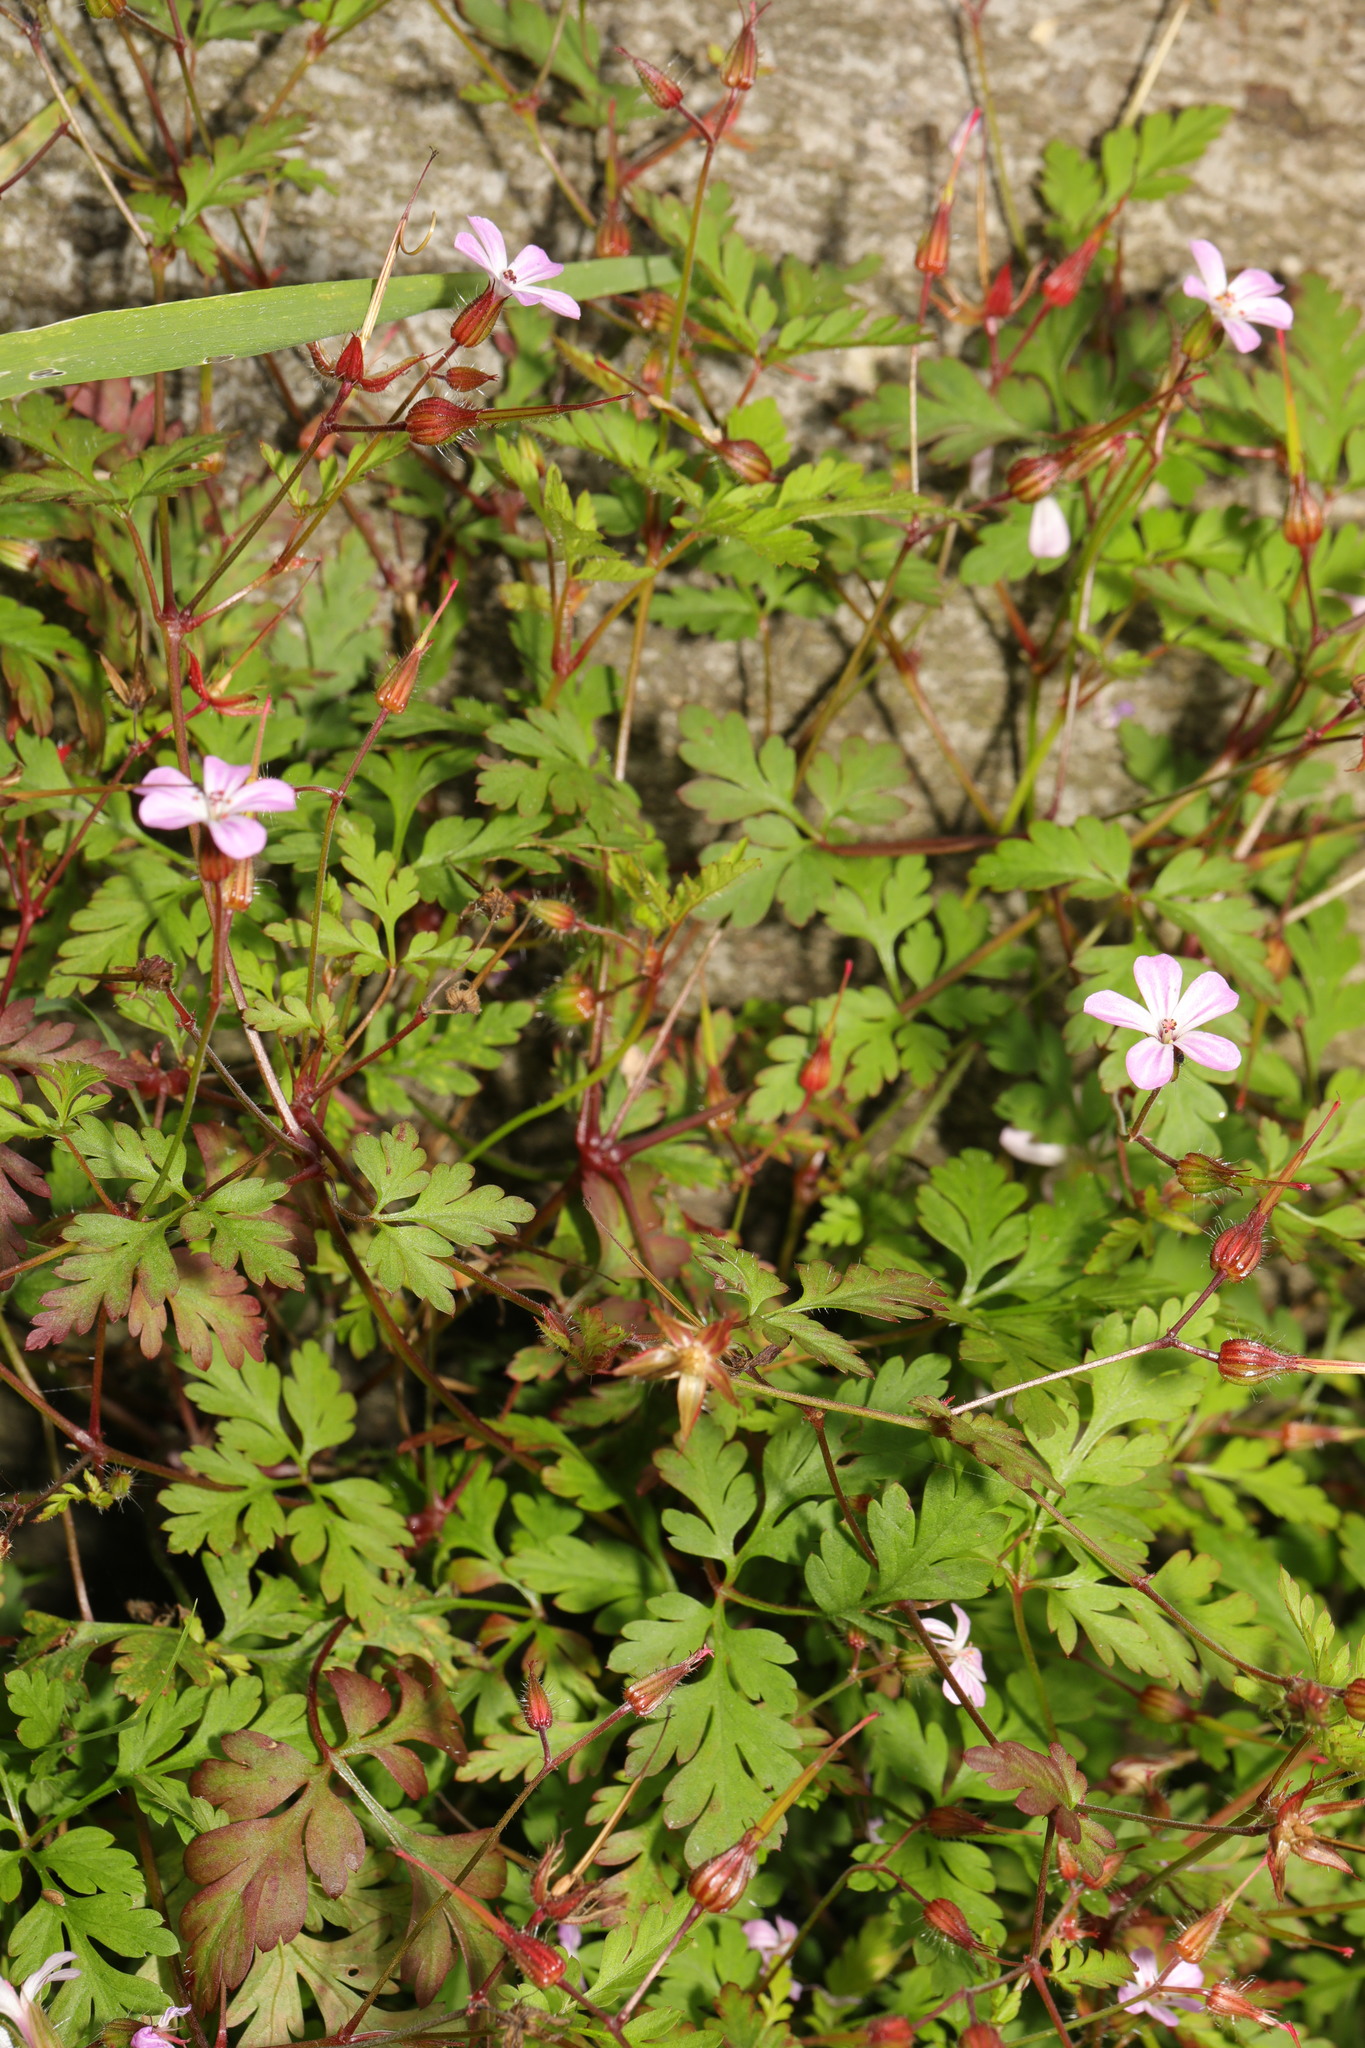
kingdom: Plantae
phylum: Tracheophyta
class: Magnoliopsida
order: Geraniales
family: Geraniaceae
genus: Geranium
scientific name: Geranium robertianum
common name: Herb-robert
